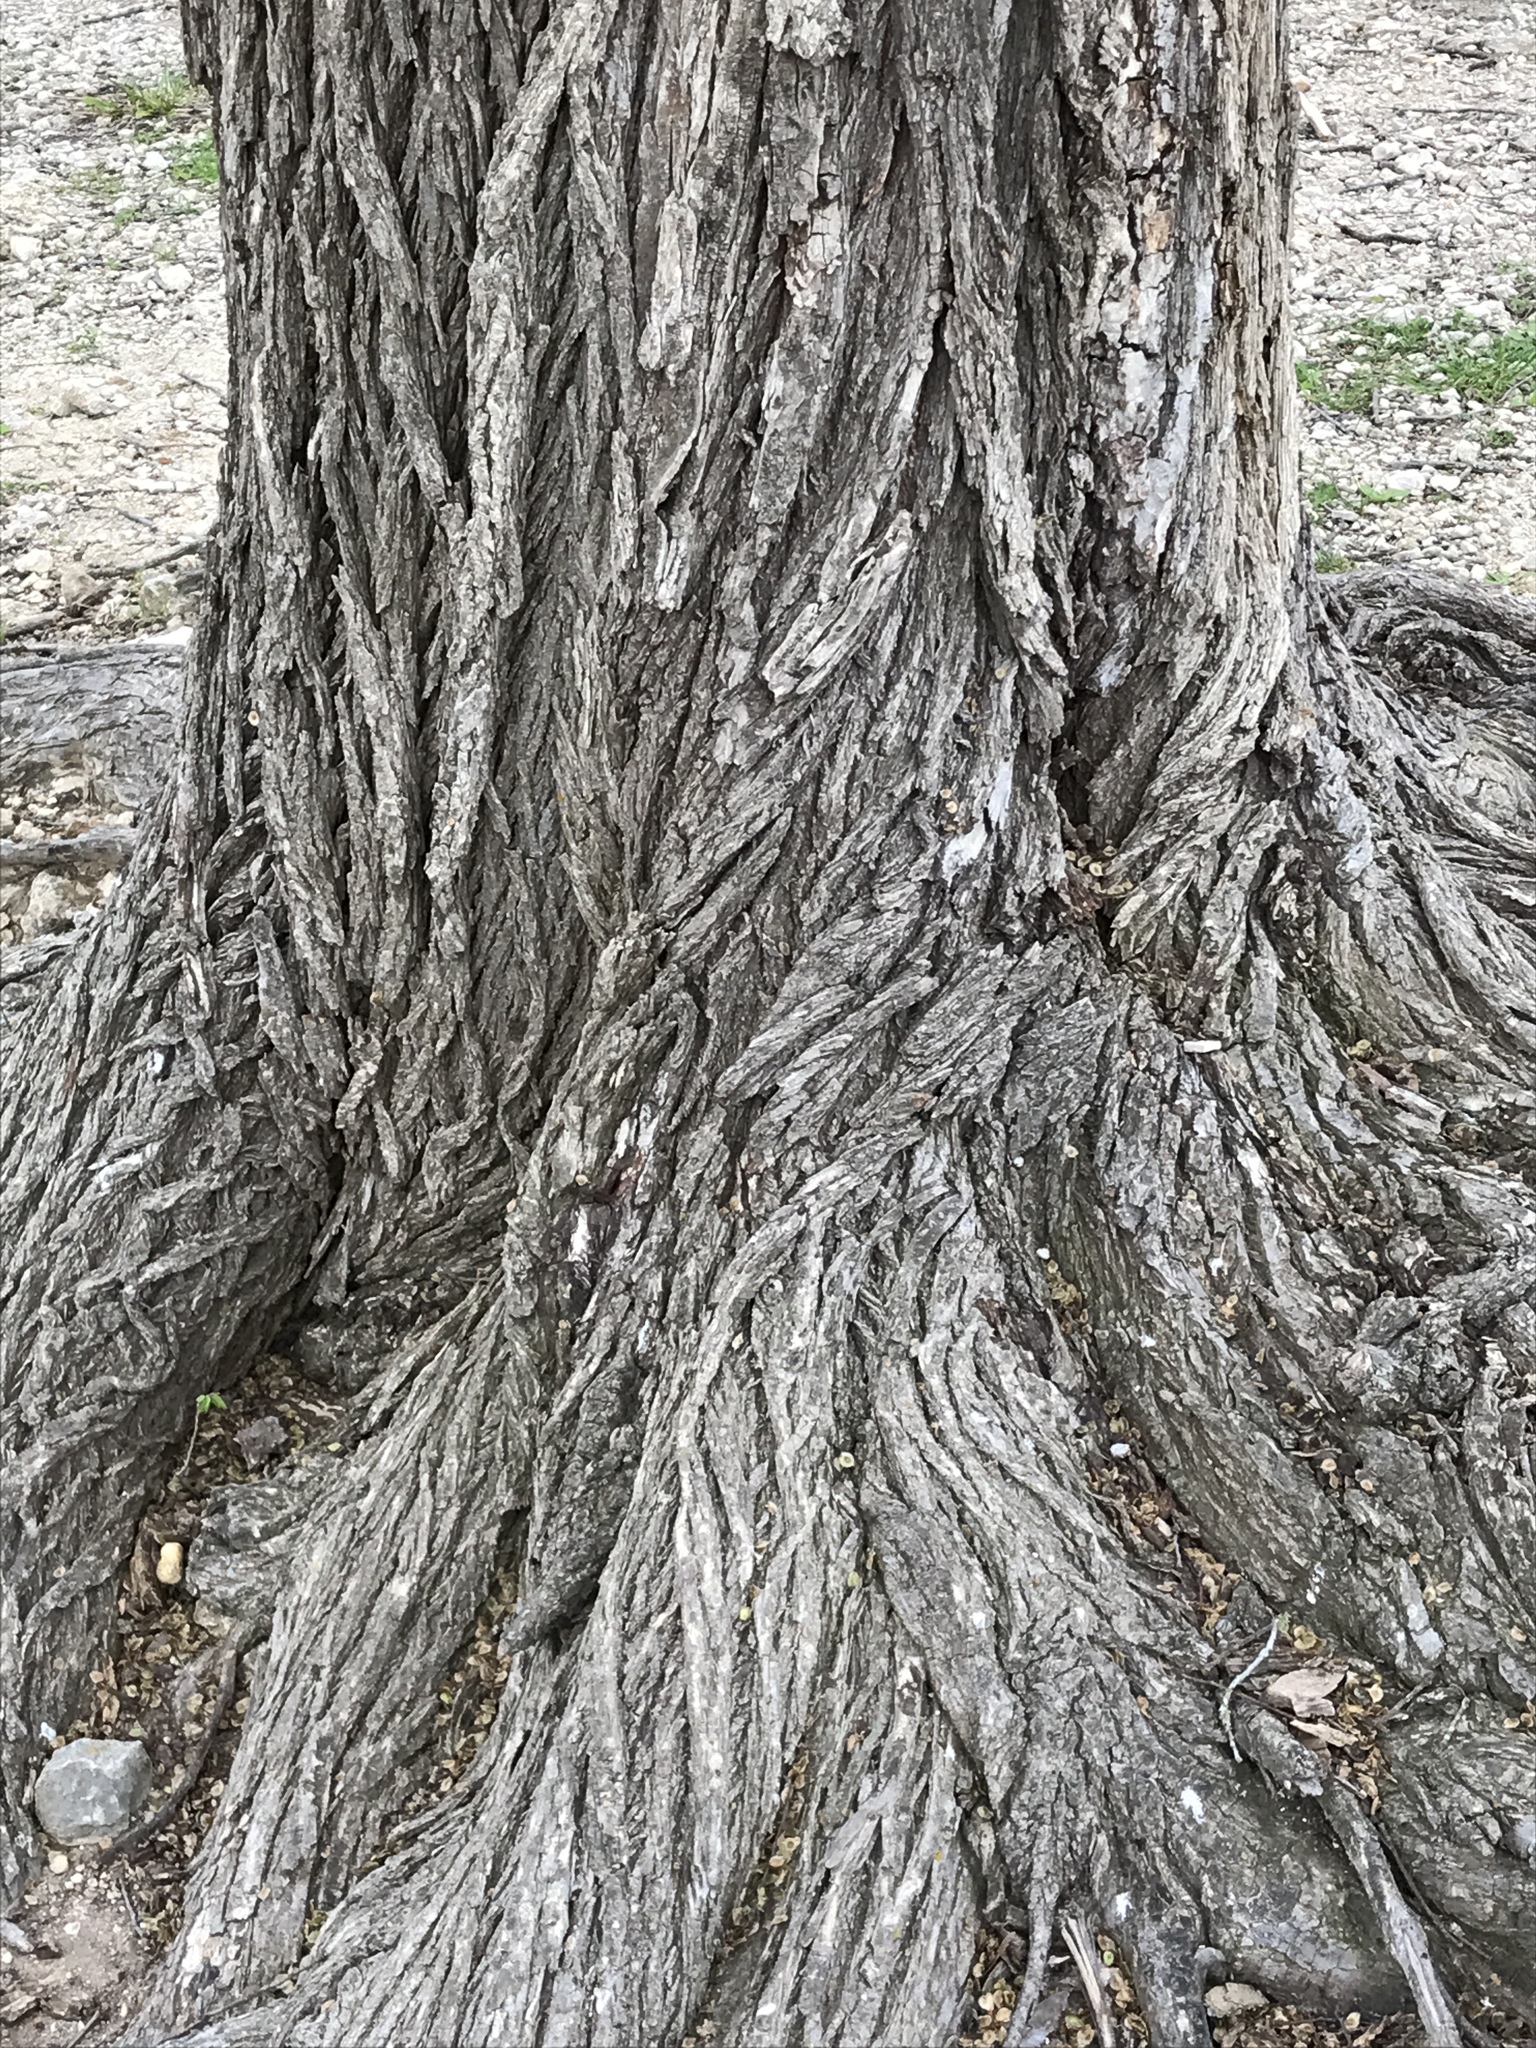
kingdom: Plantae
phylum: Tracheophyta
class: Magnoliopsida
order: Rosales
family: Ulmaceae
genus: Ulmus
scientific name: Ulmus americana
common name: American elm
